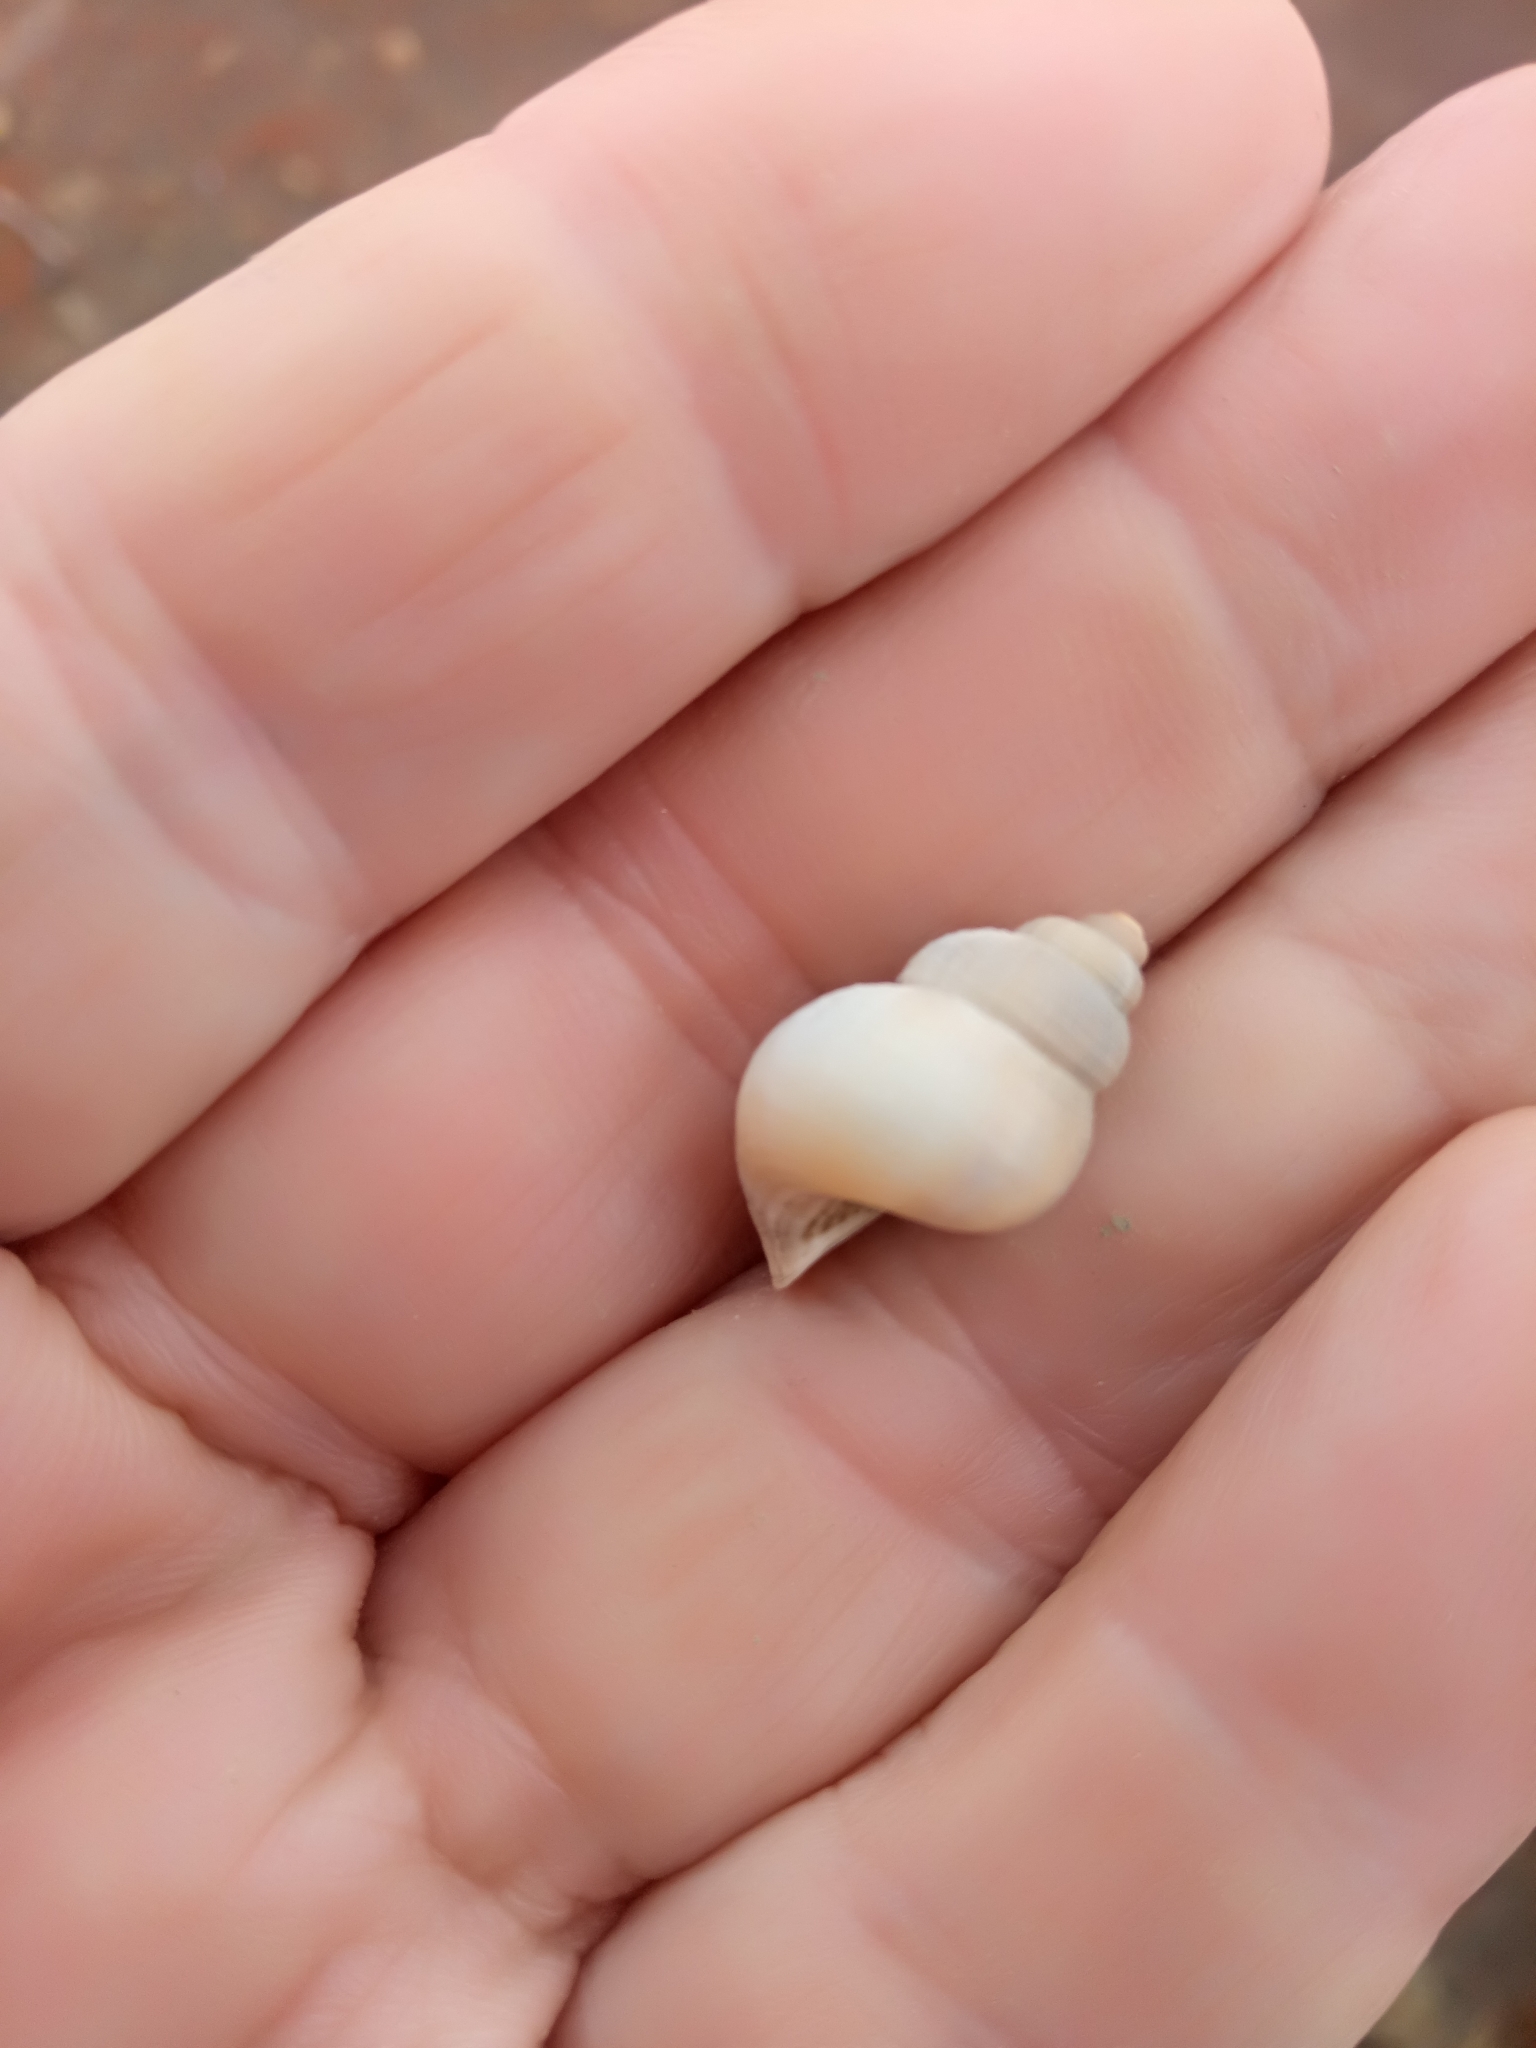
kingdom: Animalia
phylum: Mollusca
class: Gastropoda
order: Littorinimorpha
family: Pomatiidae
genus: Tudorella
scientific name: Tudorella sulcata
